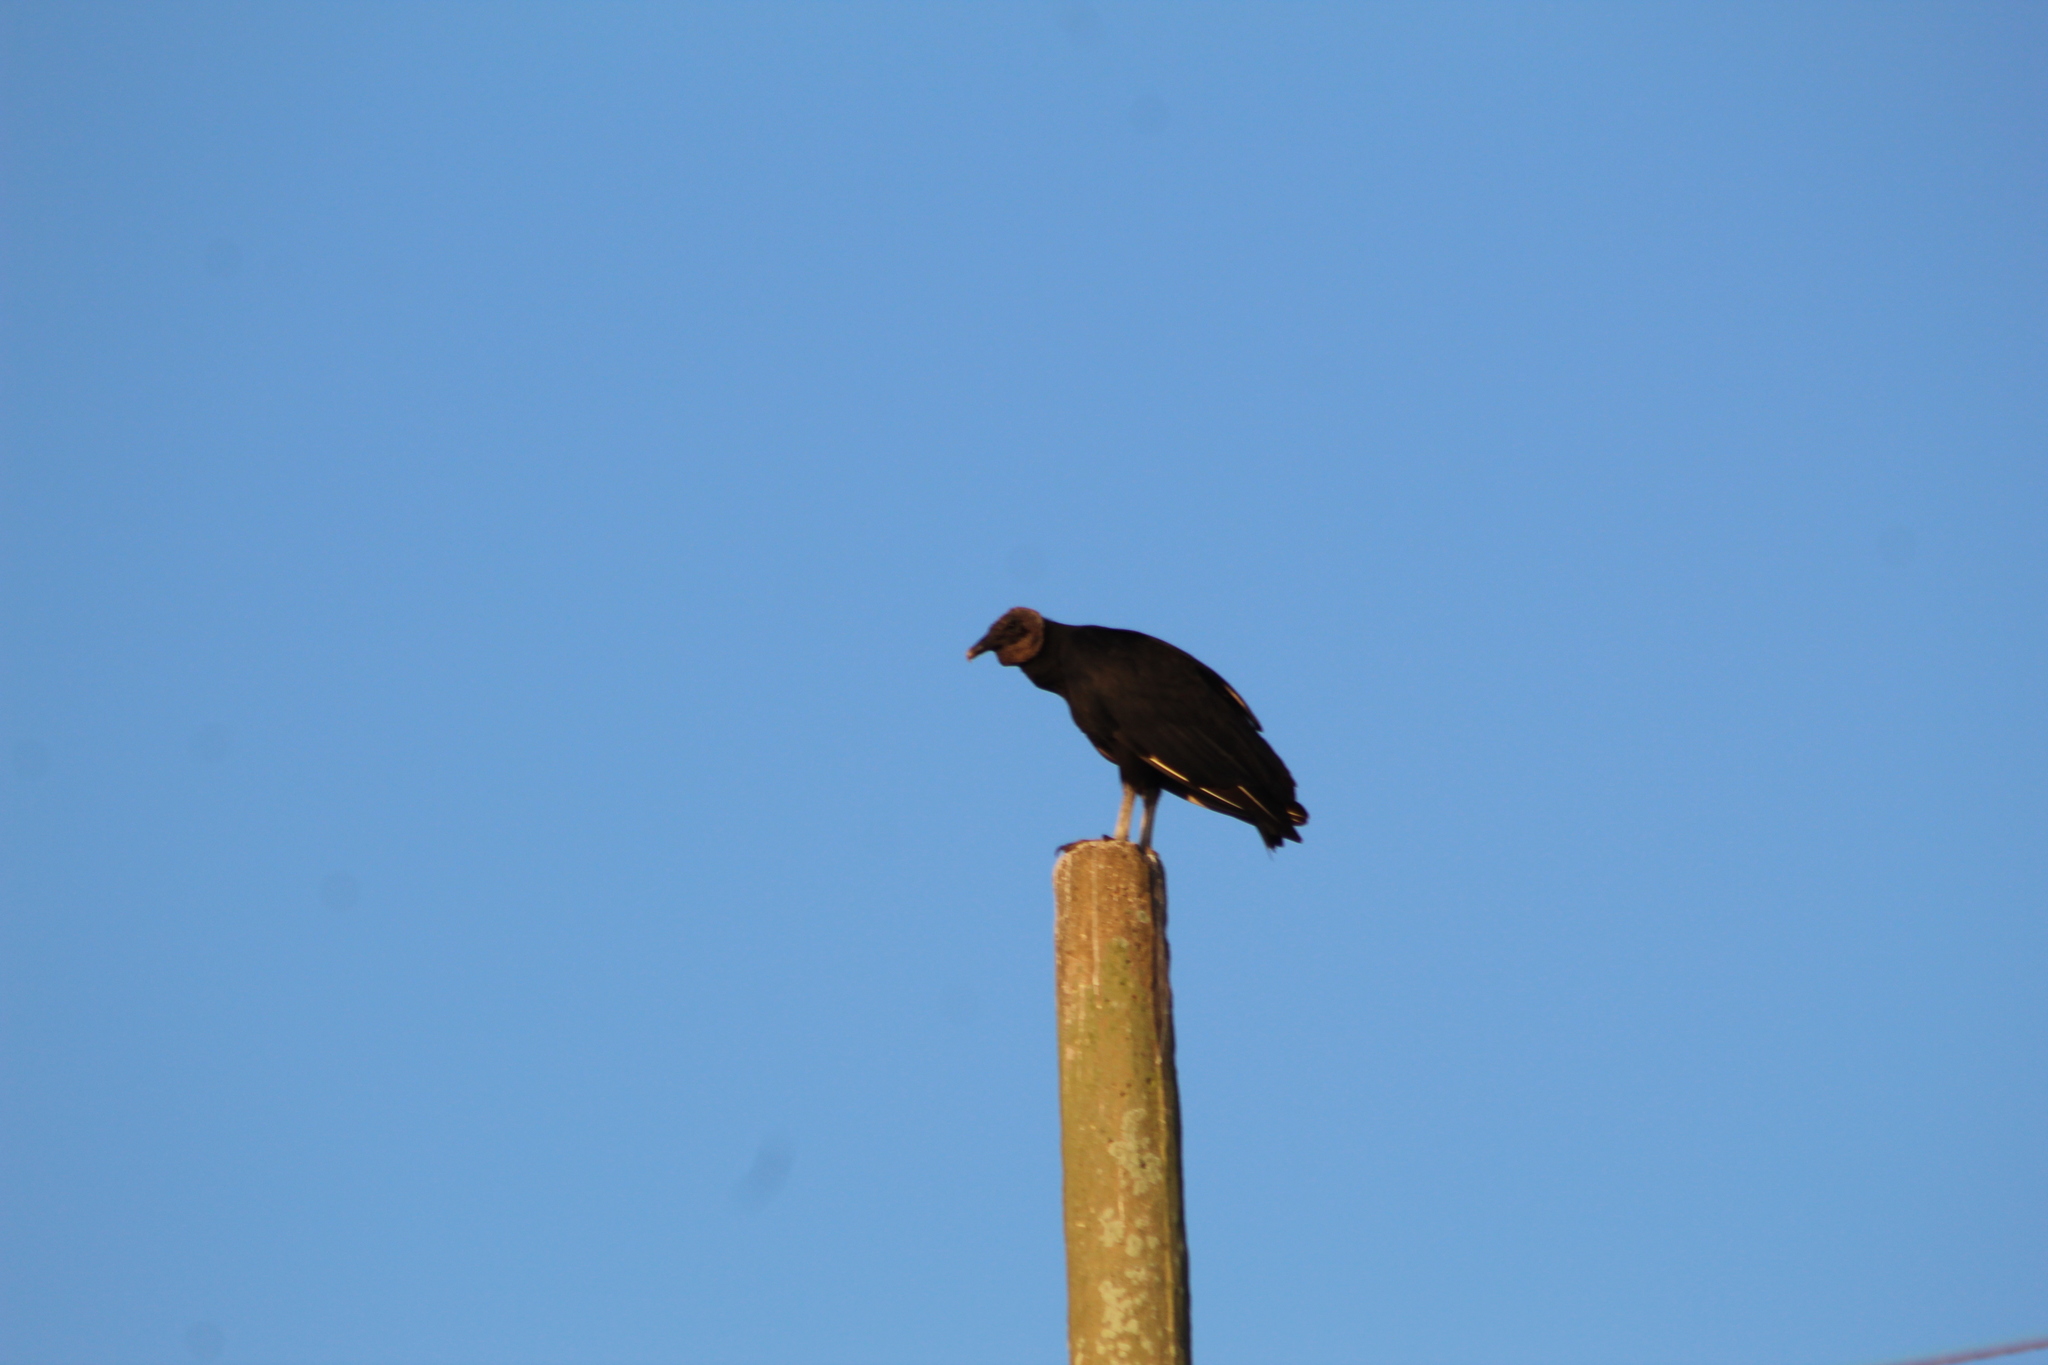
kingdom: Animalia
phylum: Chordata
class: Aves
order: Accipitriformes
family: Cathartidae
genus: Coragyps
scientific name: Coragyps atratus
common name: Black vulture
